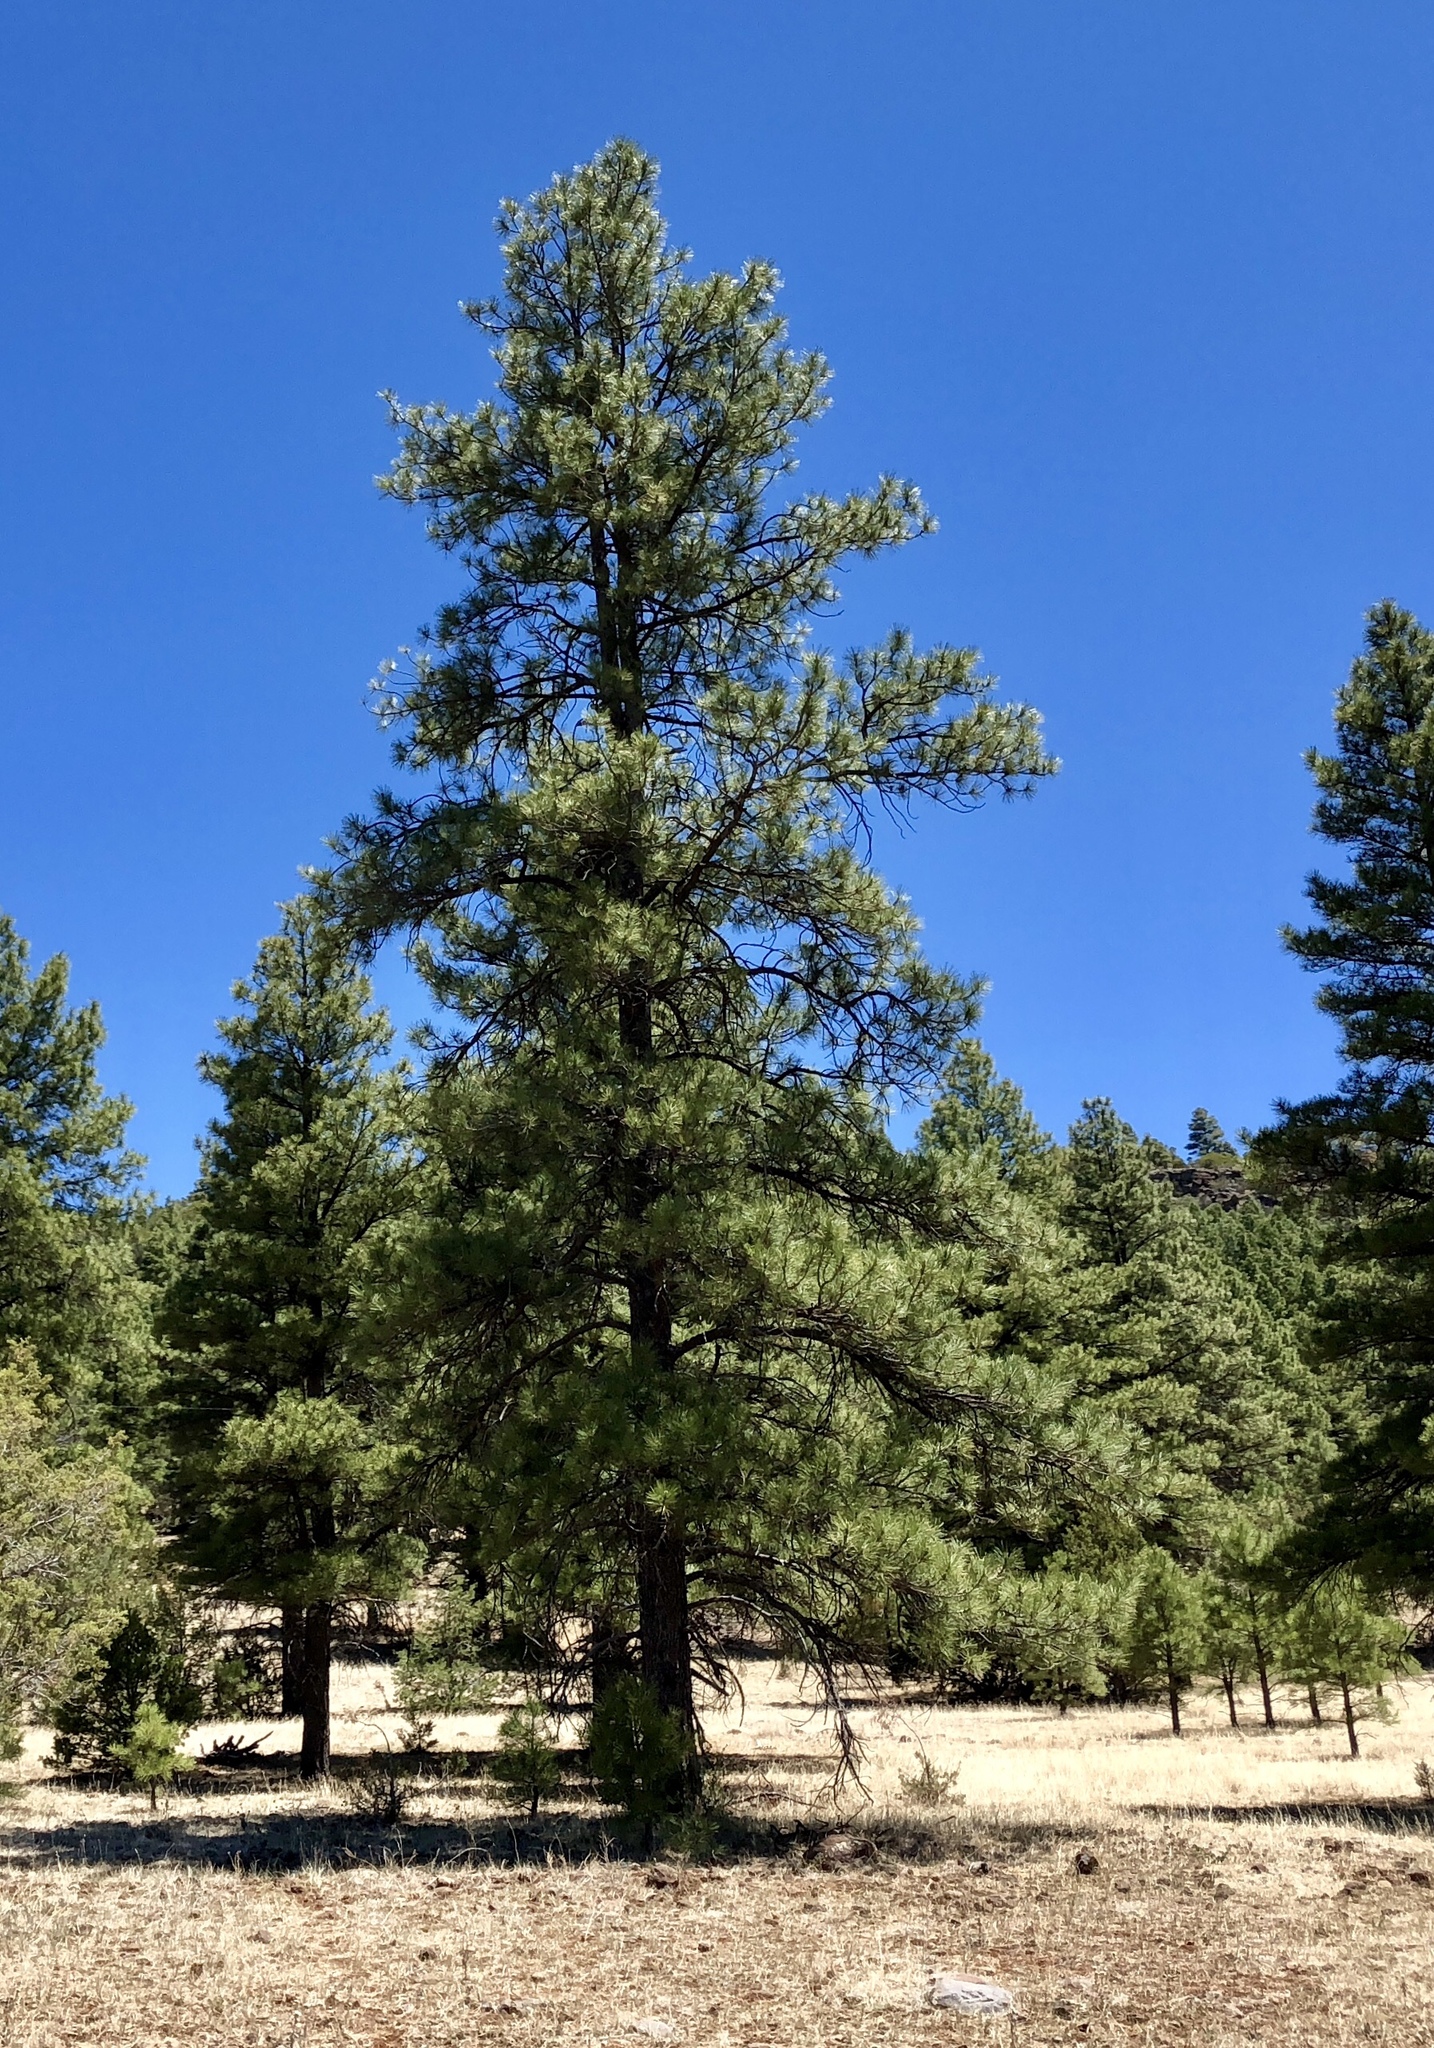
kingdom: Plantae
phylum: Tracheophyta
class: Pinopsida
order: Pinales
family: Pinaceae
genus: Pinus
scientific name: Pinus ponderosa
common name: Western yellow-pine
